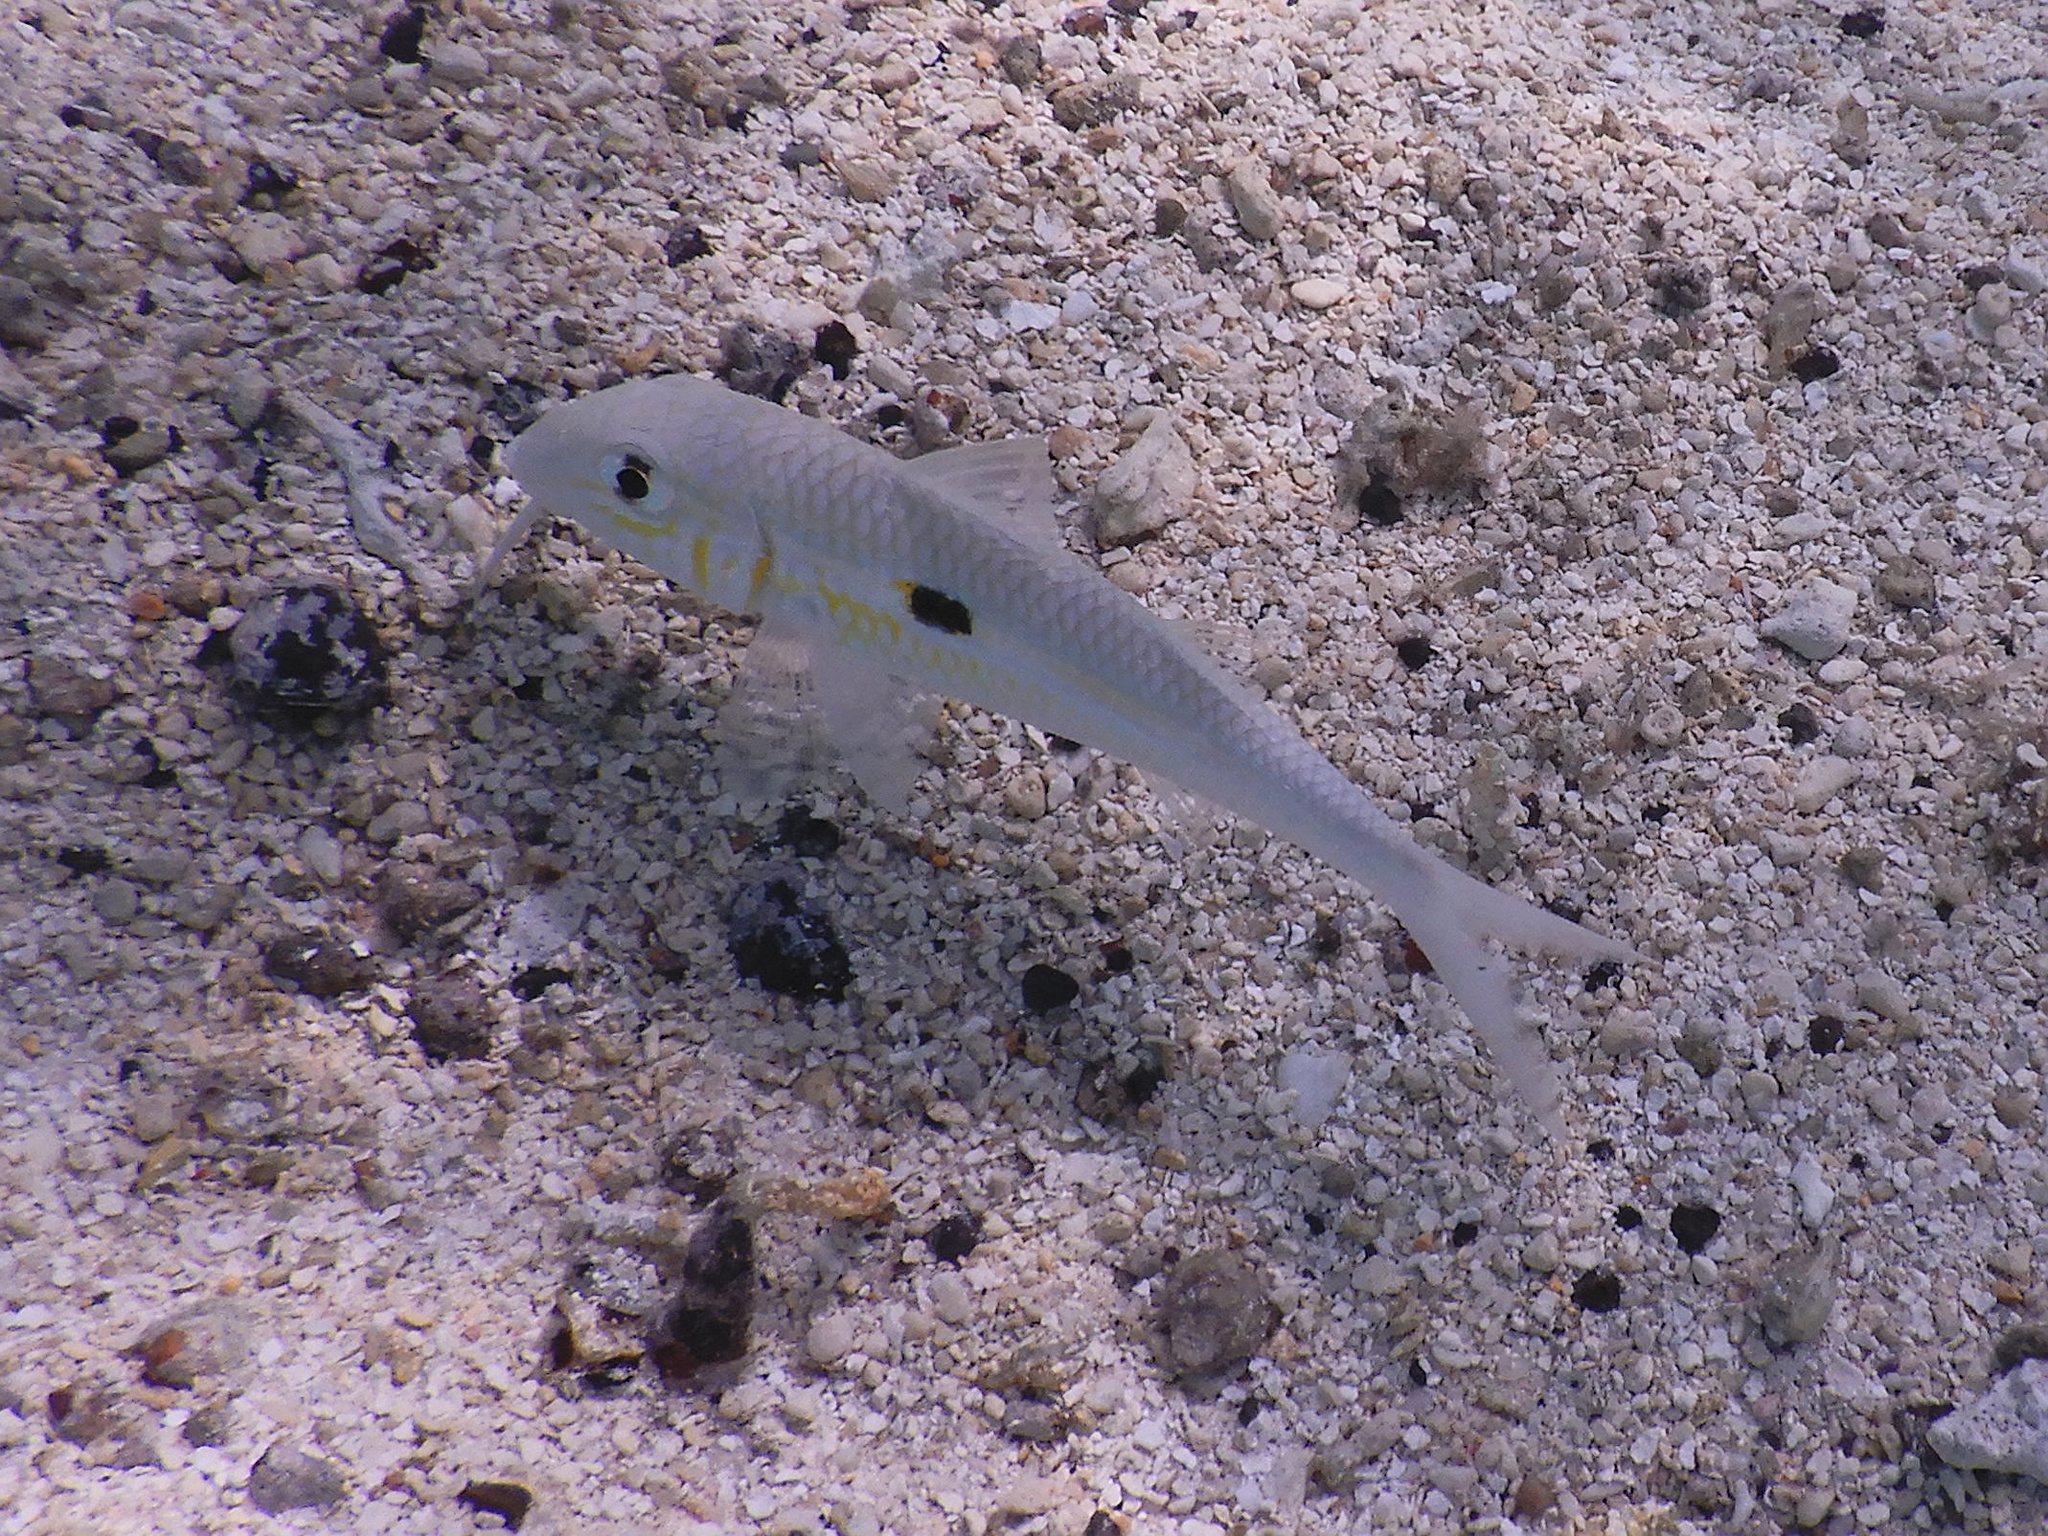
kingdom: Animalia
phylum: Chordata
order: Perciformes
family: Mullidae
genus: Mulloidichthys
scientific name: Mulloidichthys flavolineatus
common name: Yellowstripe goatfish
